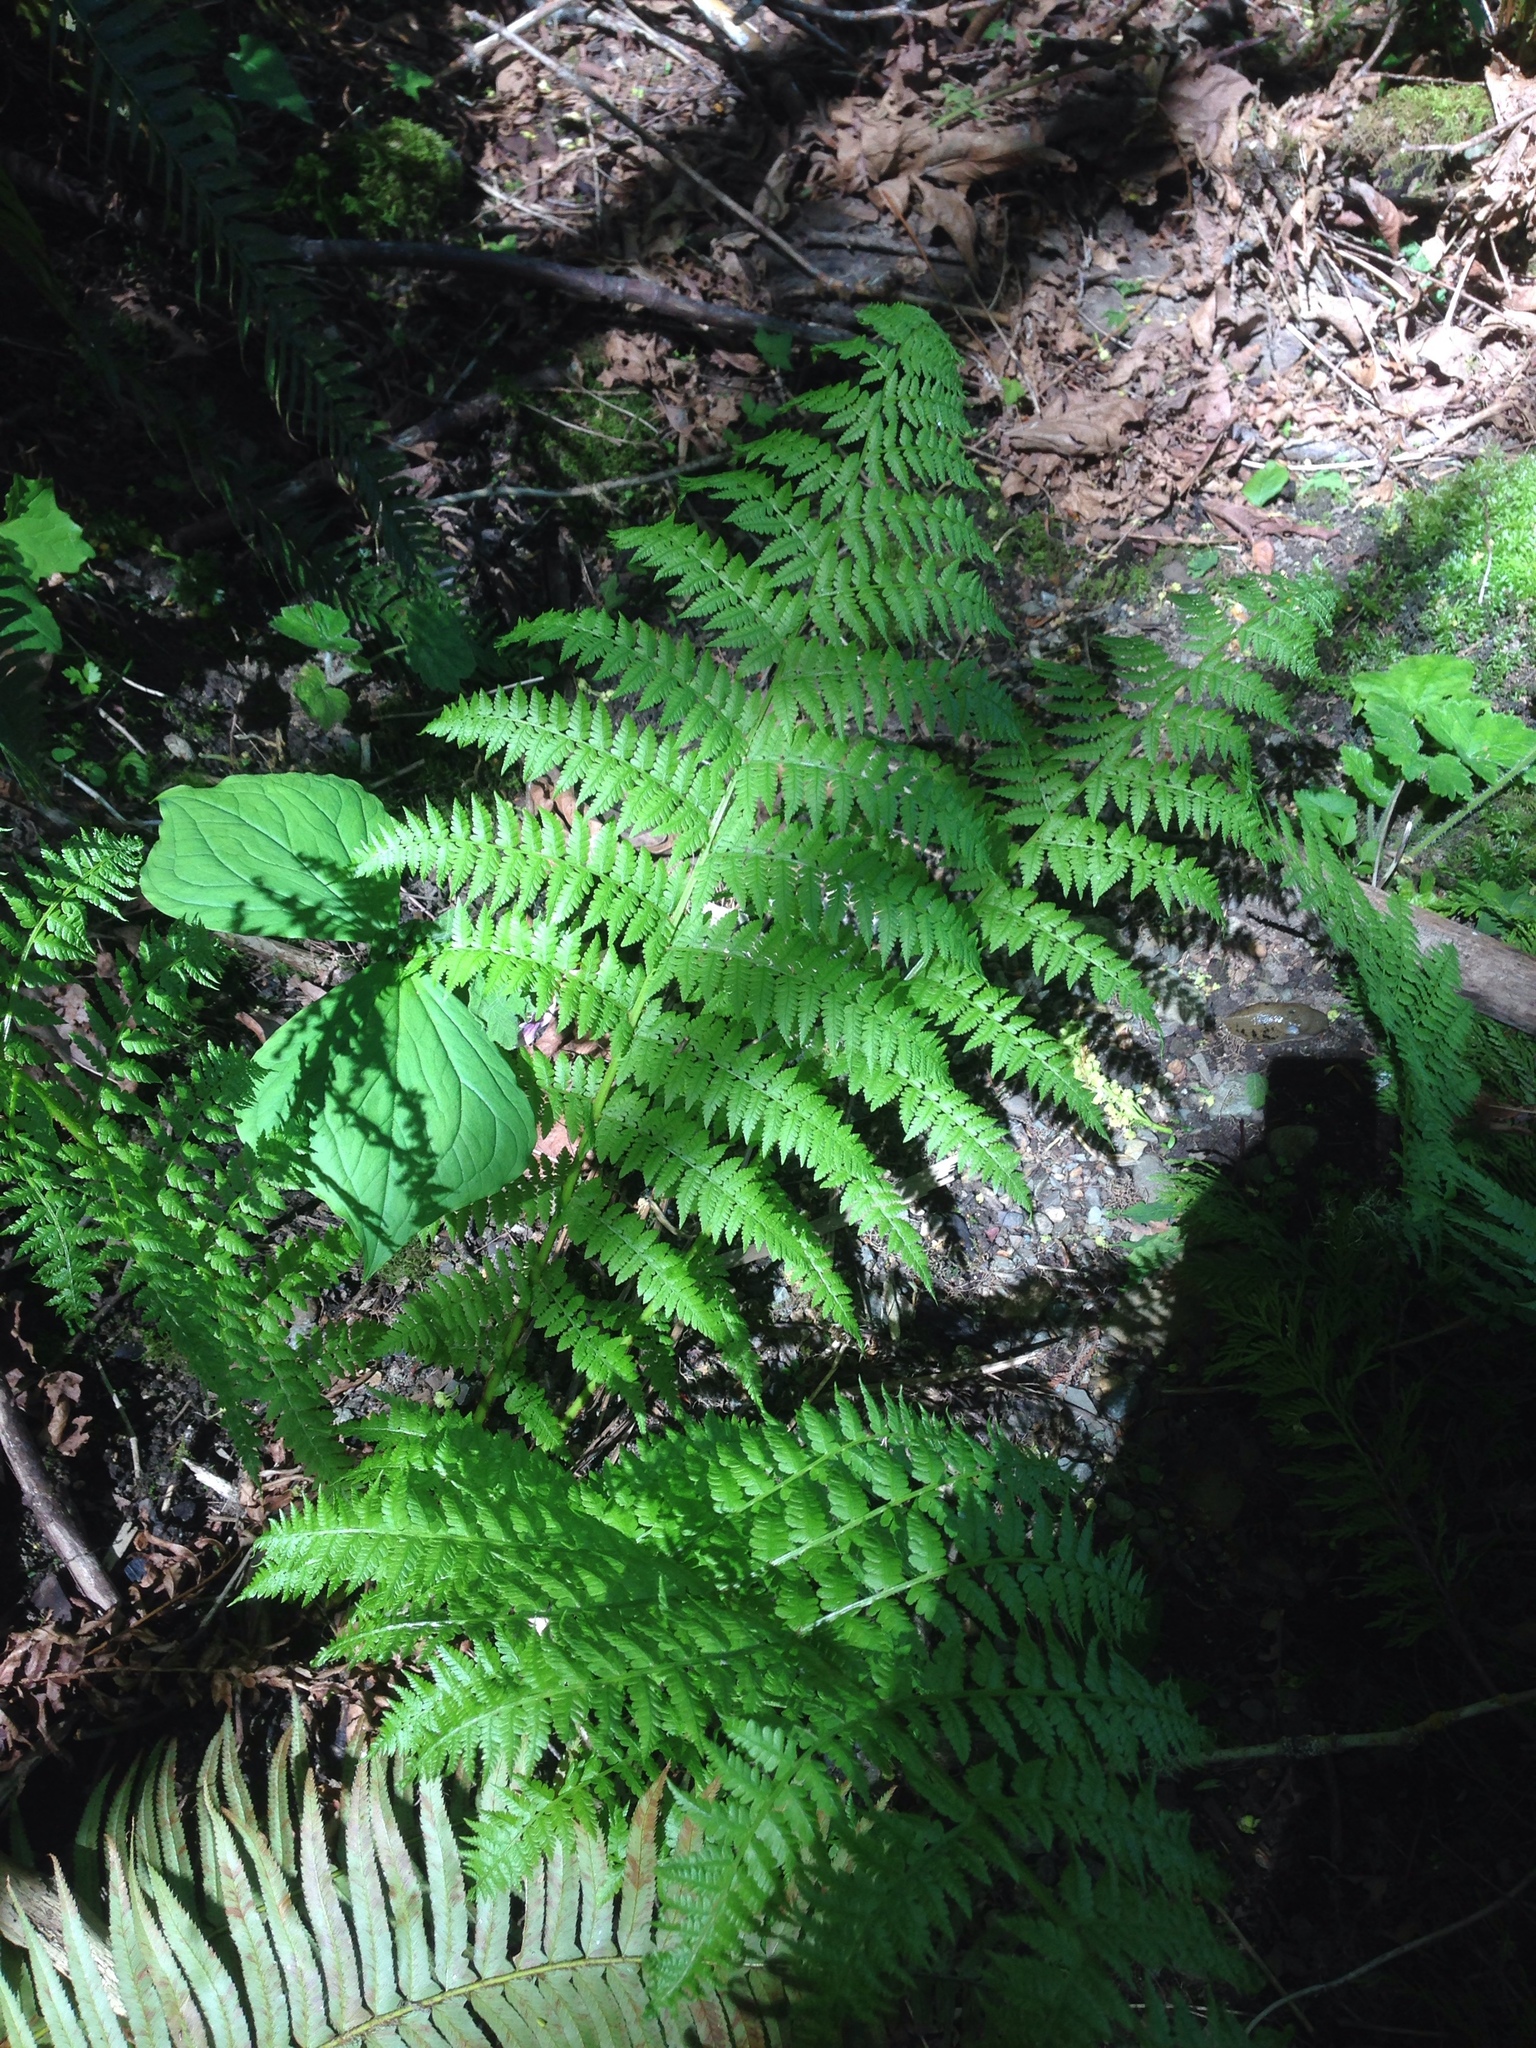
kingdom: Plantae
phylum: Tracheophyta
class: Polypodiopsida
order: Polypodiales
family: Athyriaceae
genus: Athyrium
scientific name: Athyrium filix-femina
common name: Lady fern
